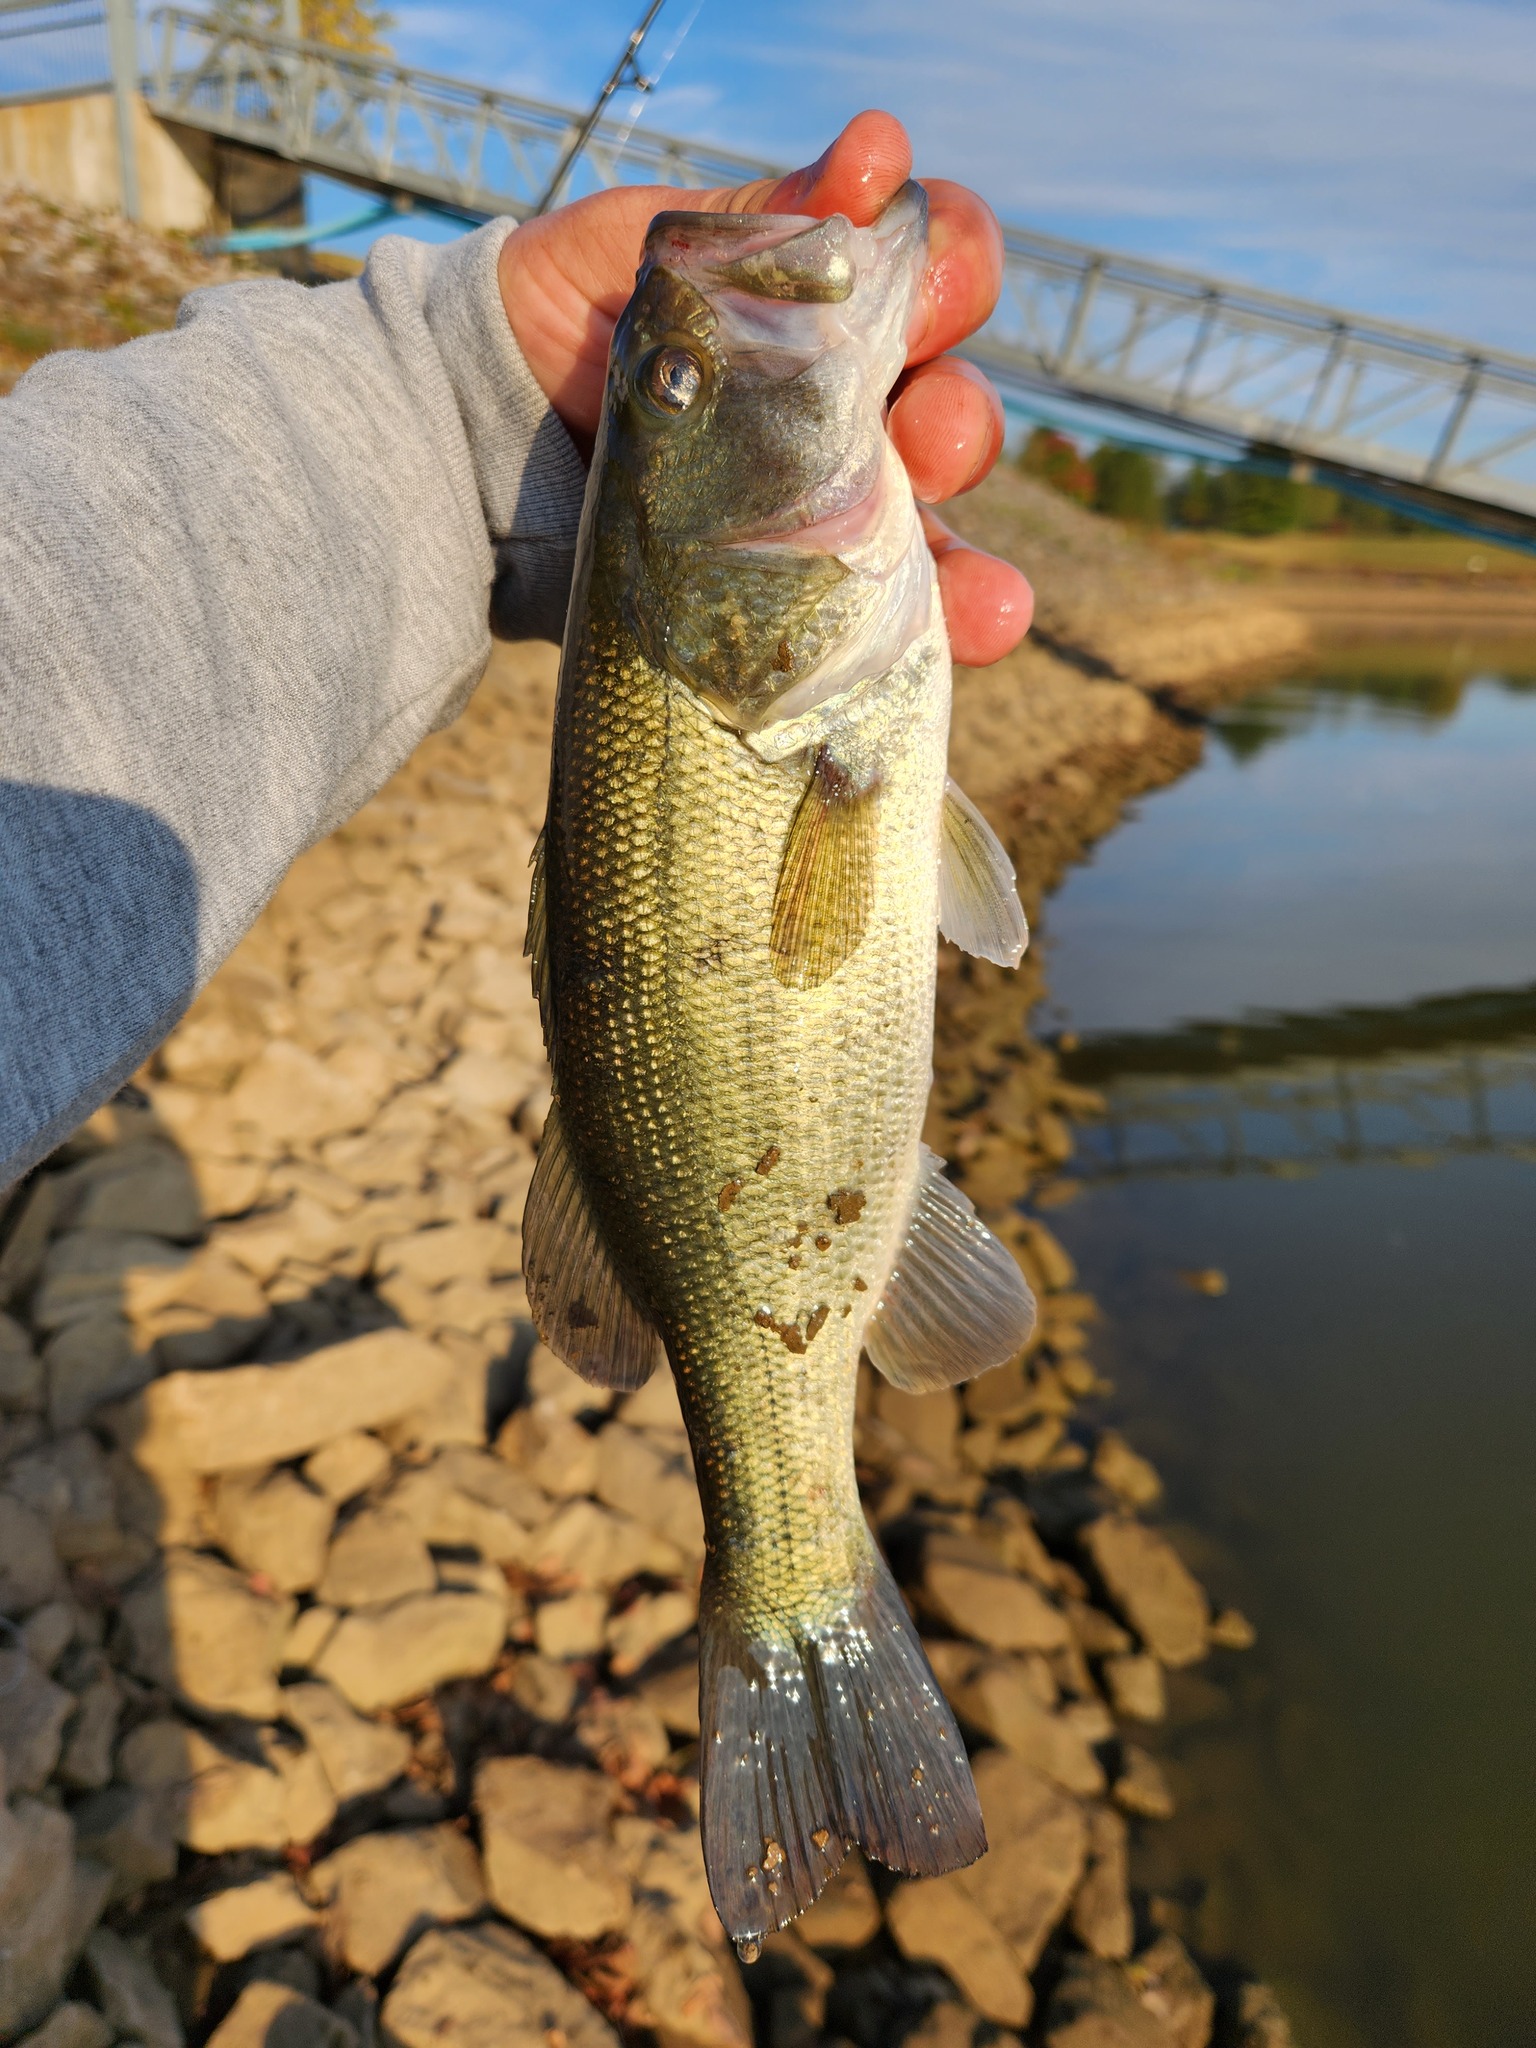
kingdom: Animalia
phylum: Chordata
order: Perciformes
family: Centrarchidae
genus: Micropterus
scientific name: Micropterus
